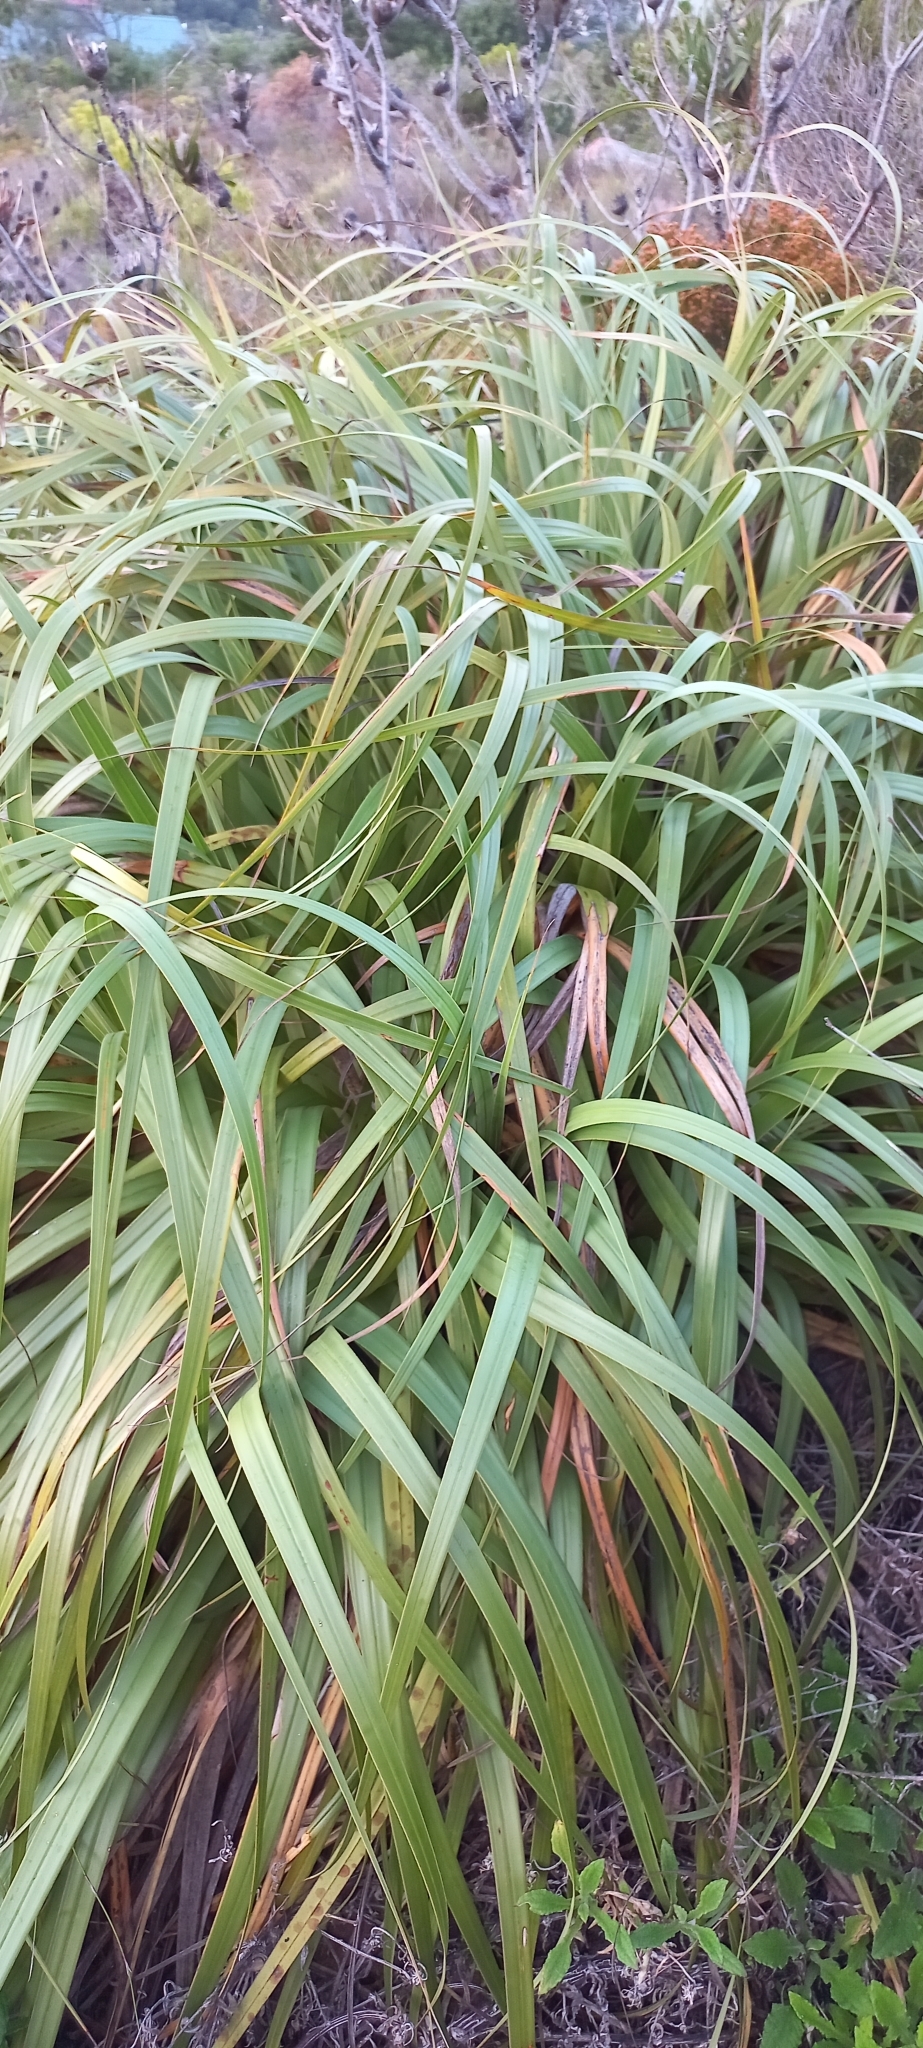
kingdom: Plantae
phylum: Tracheophyta
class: Liliopsida
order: Poales
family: Cyperaceae
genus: Tetraria
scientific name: Tetraria thermalis
